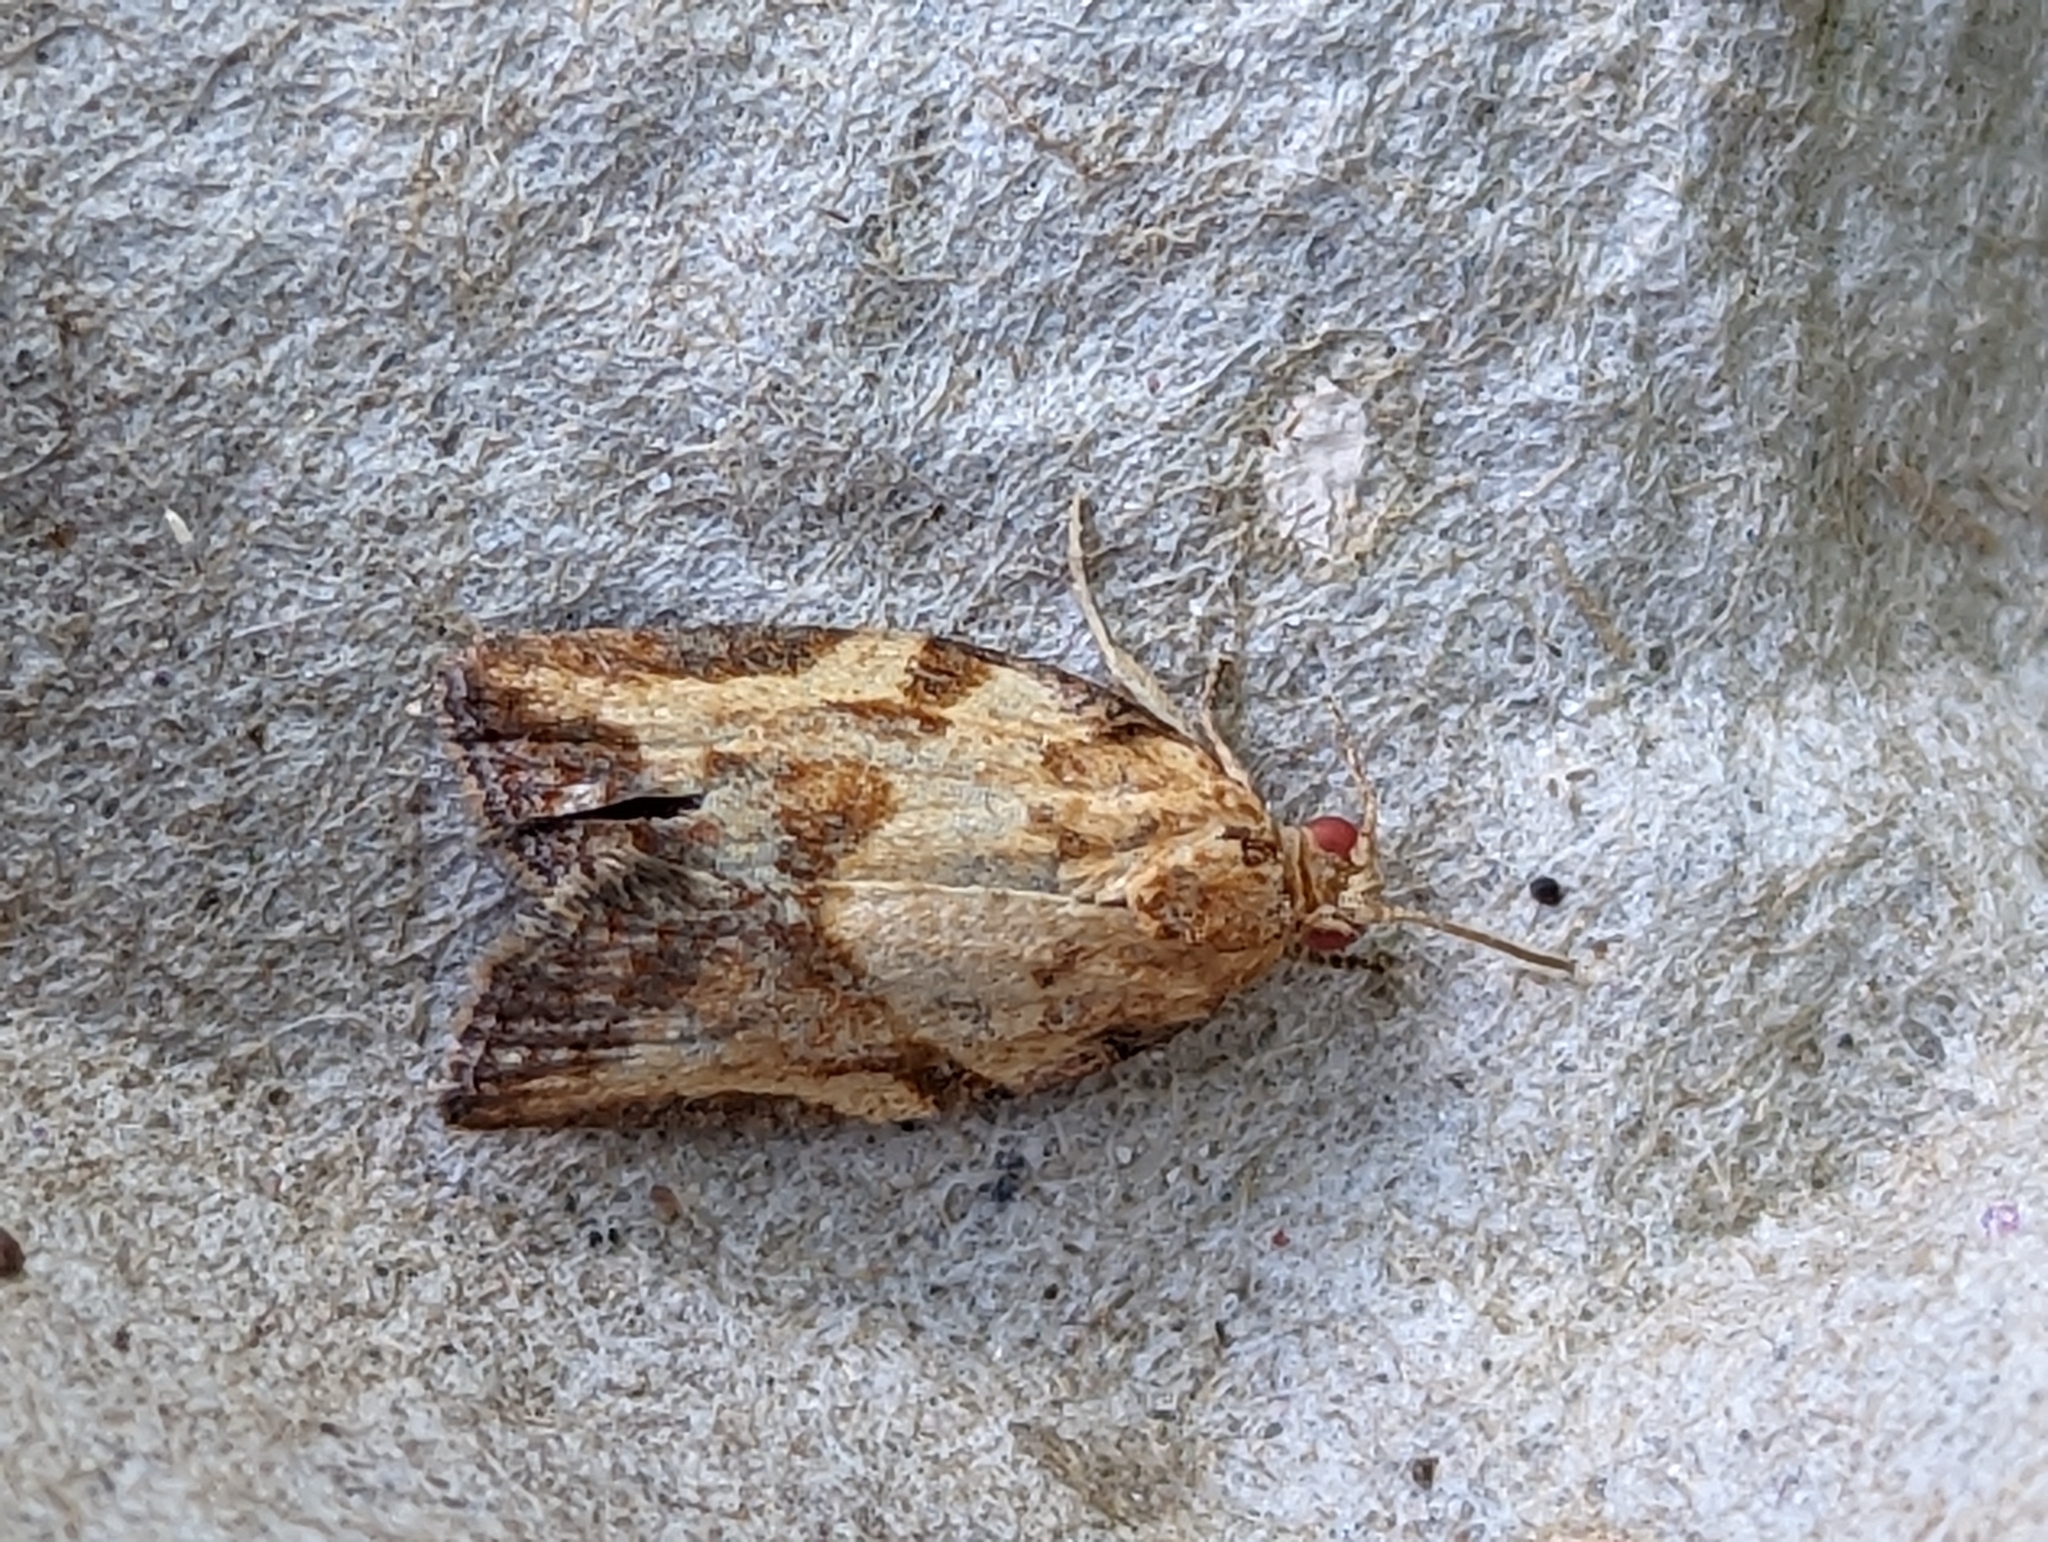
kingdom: Animalia
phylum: Arthropoda
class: Insecta
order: Lepidoptera
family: Tortricidae
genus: Epiphyas
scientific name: Epiphyas postvittana
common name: Light brown apple moth
